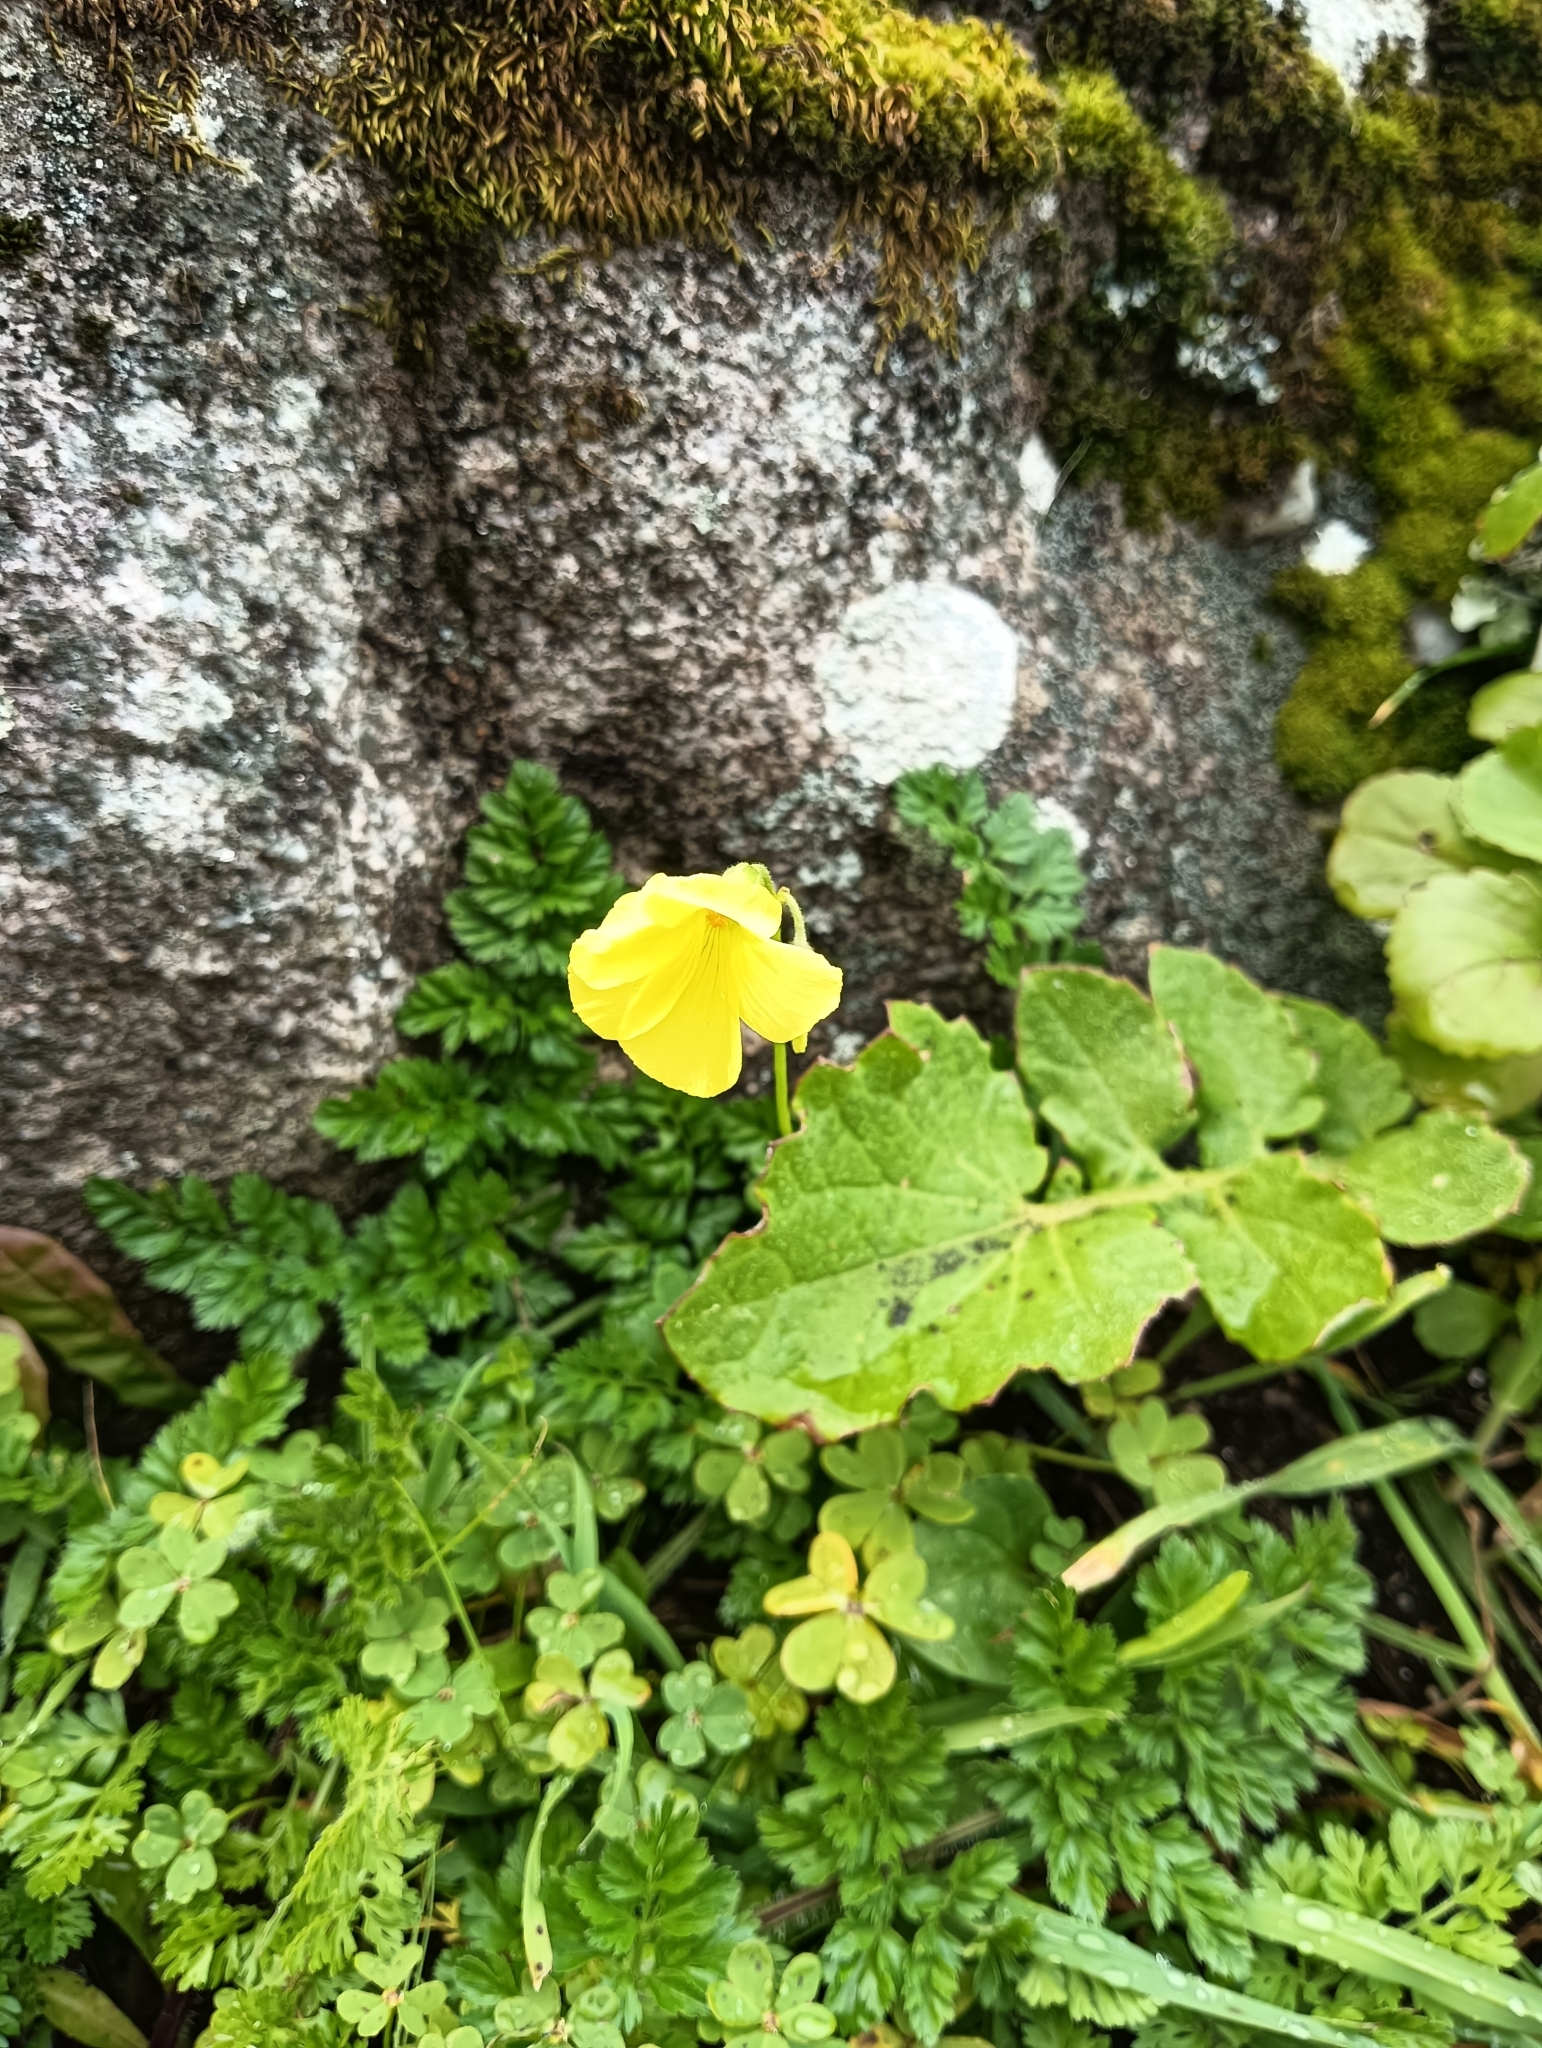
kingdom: Plantae
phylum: Tracheophyta
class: Magnoliopsida
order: Oxalidales
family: Oxalidaceae
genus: Oxalis
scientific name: Oxalis pes-caprae
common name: Bermuda-buttercup
